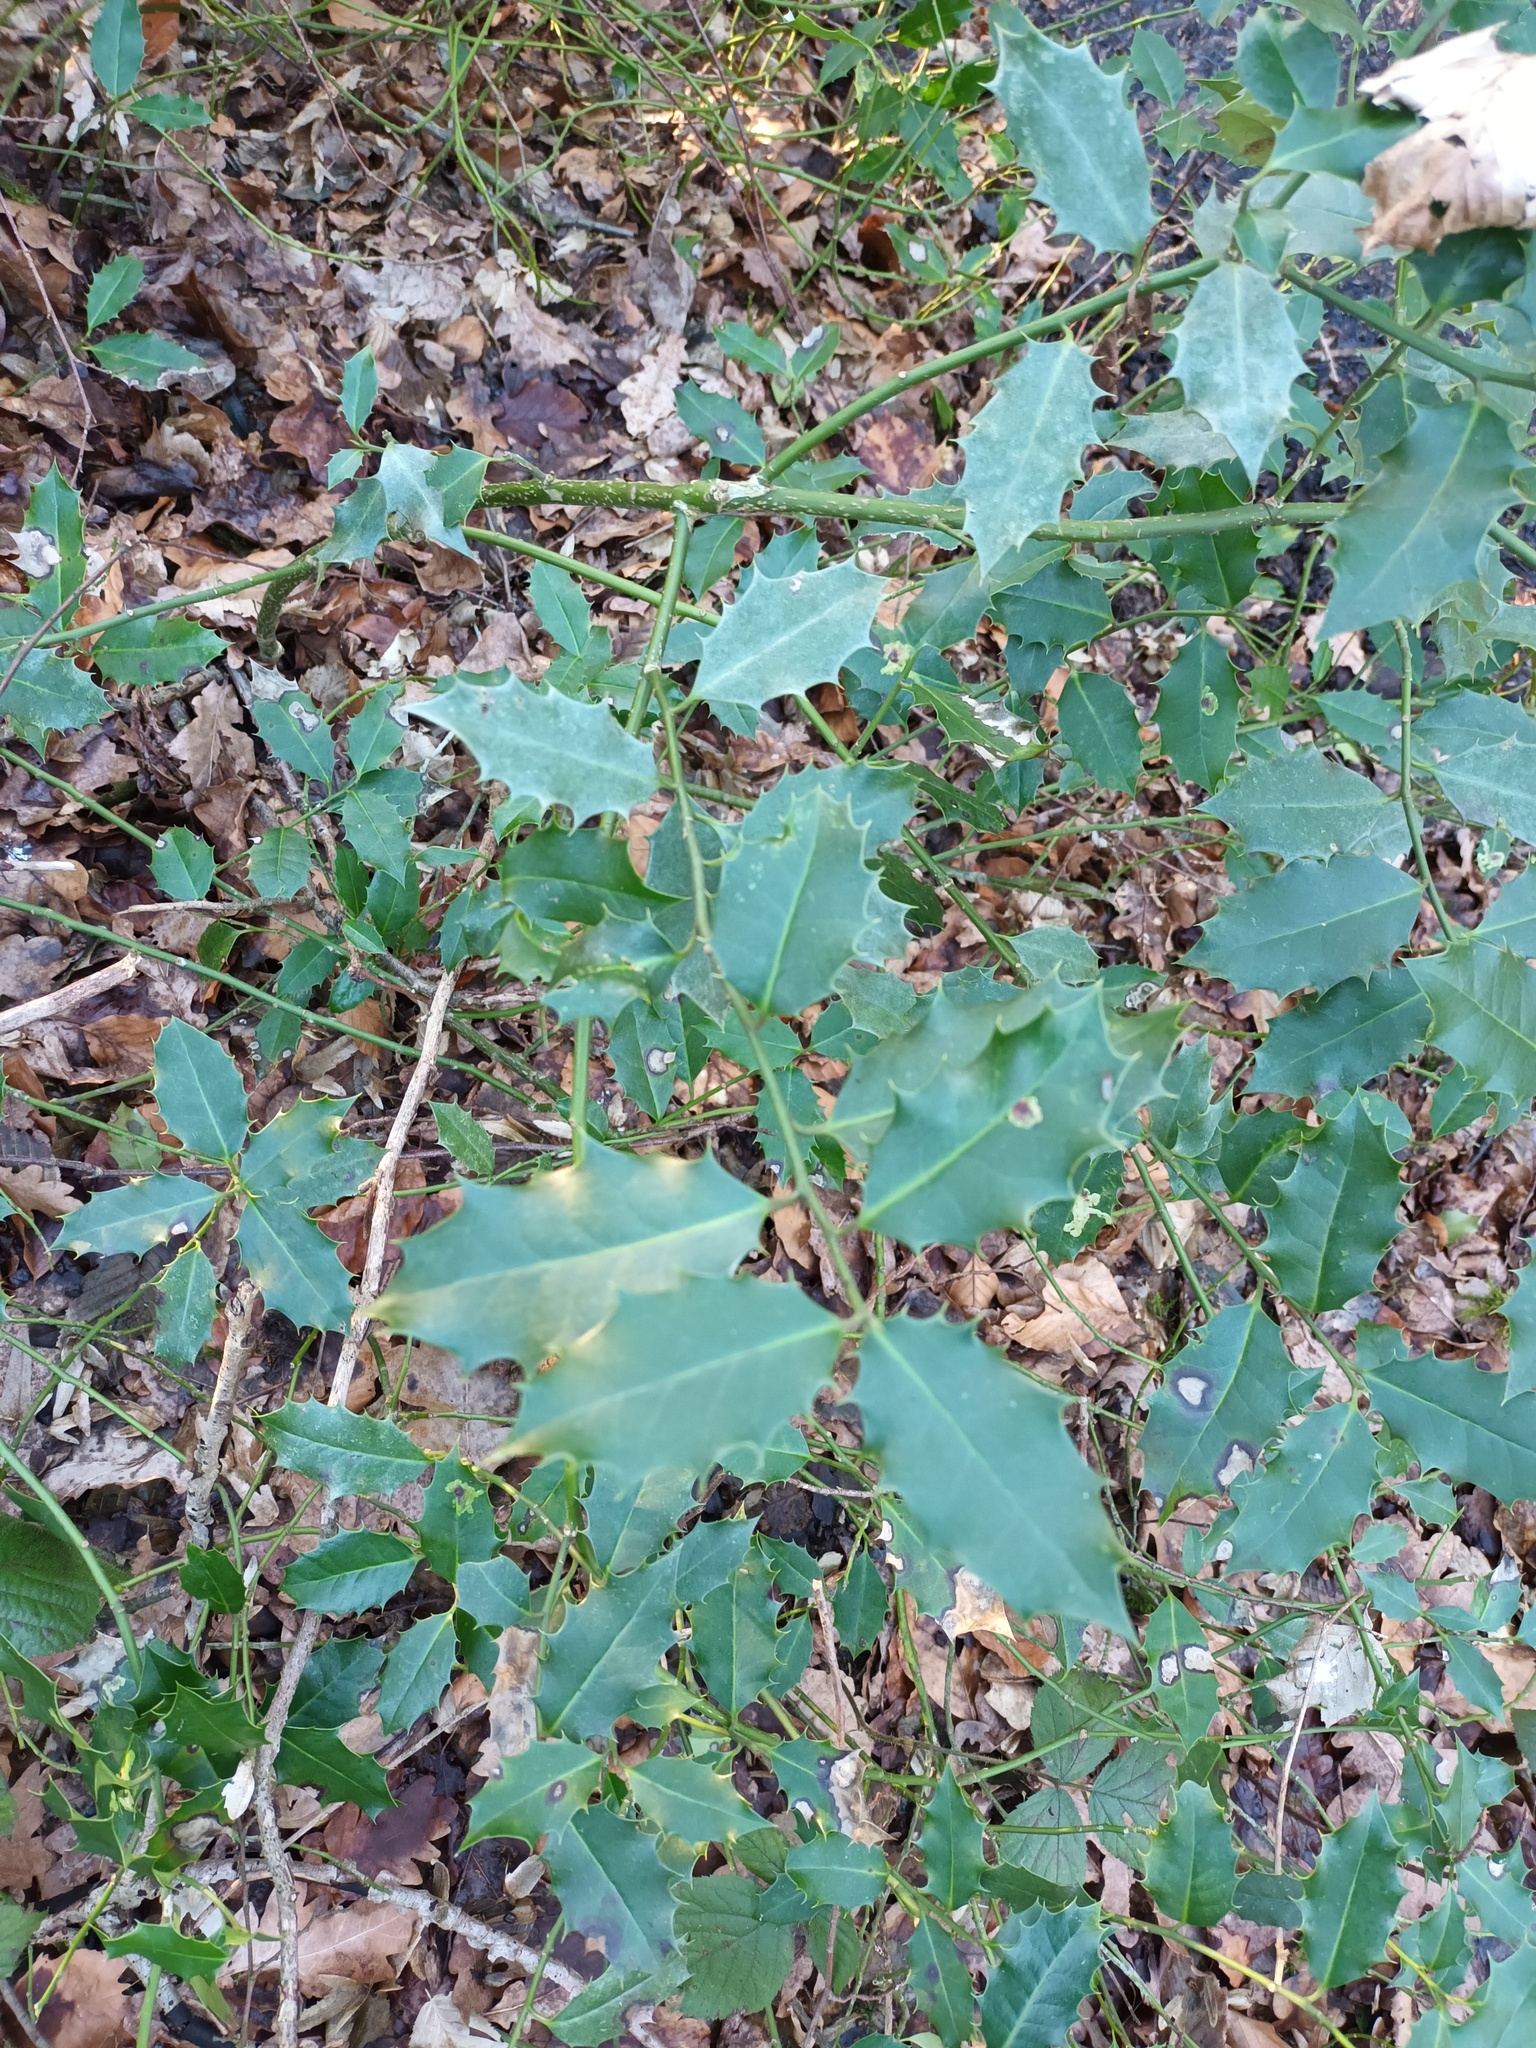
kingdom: Plantae
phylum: Tracheophyta
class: Magnoliopsida
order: Aquifoliales
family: Aquifoliaceae
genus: Ilex
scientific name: Ilex aquifolium
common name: English holly
